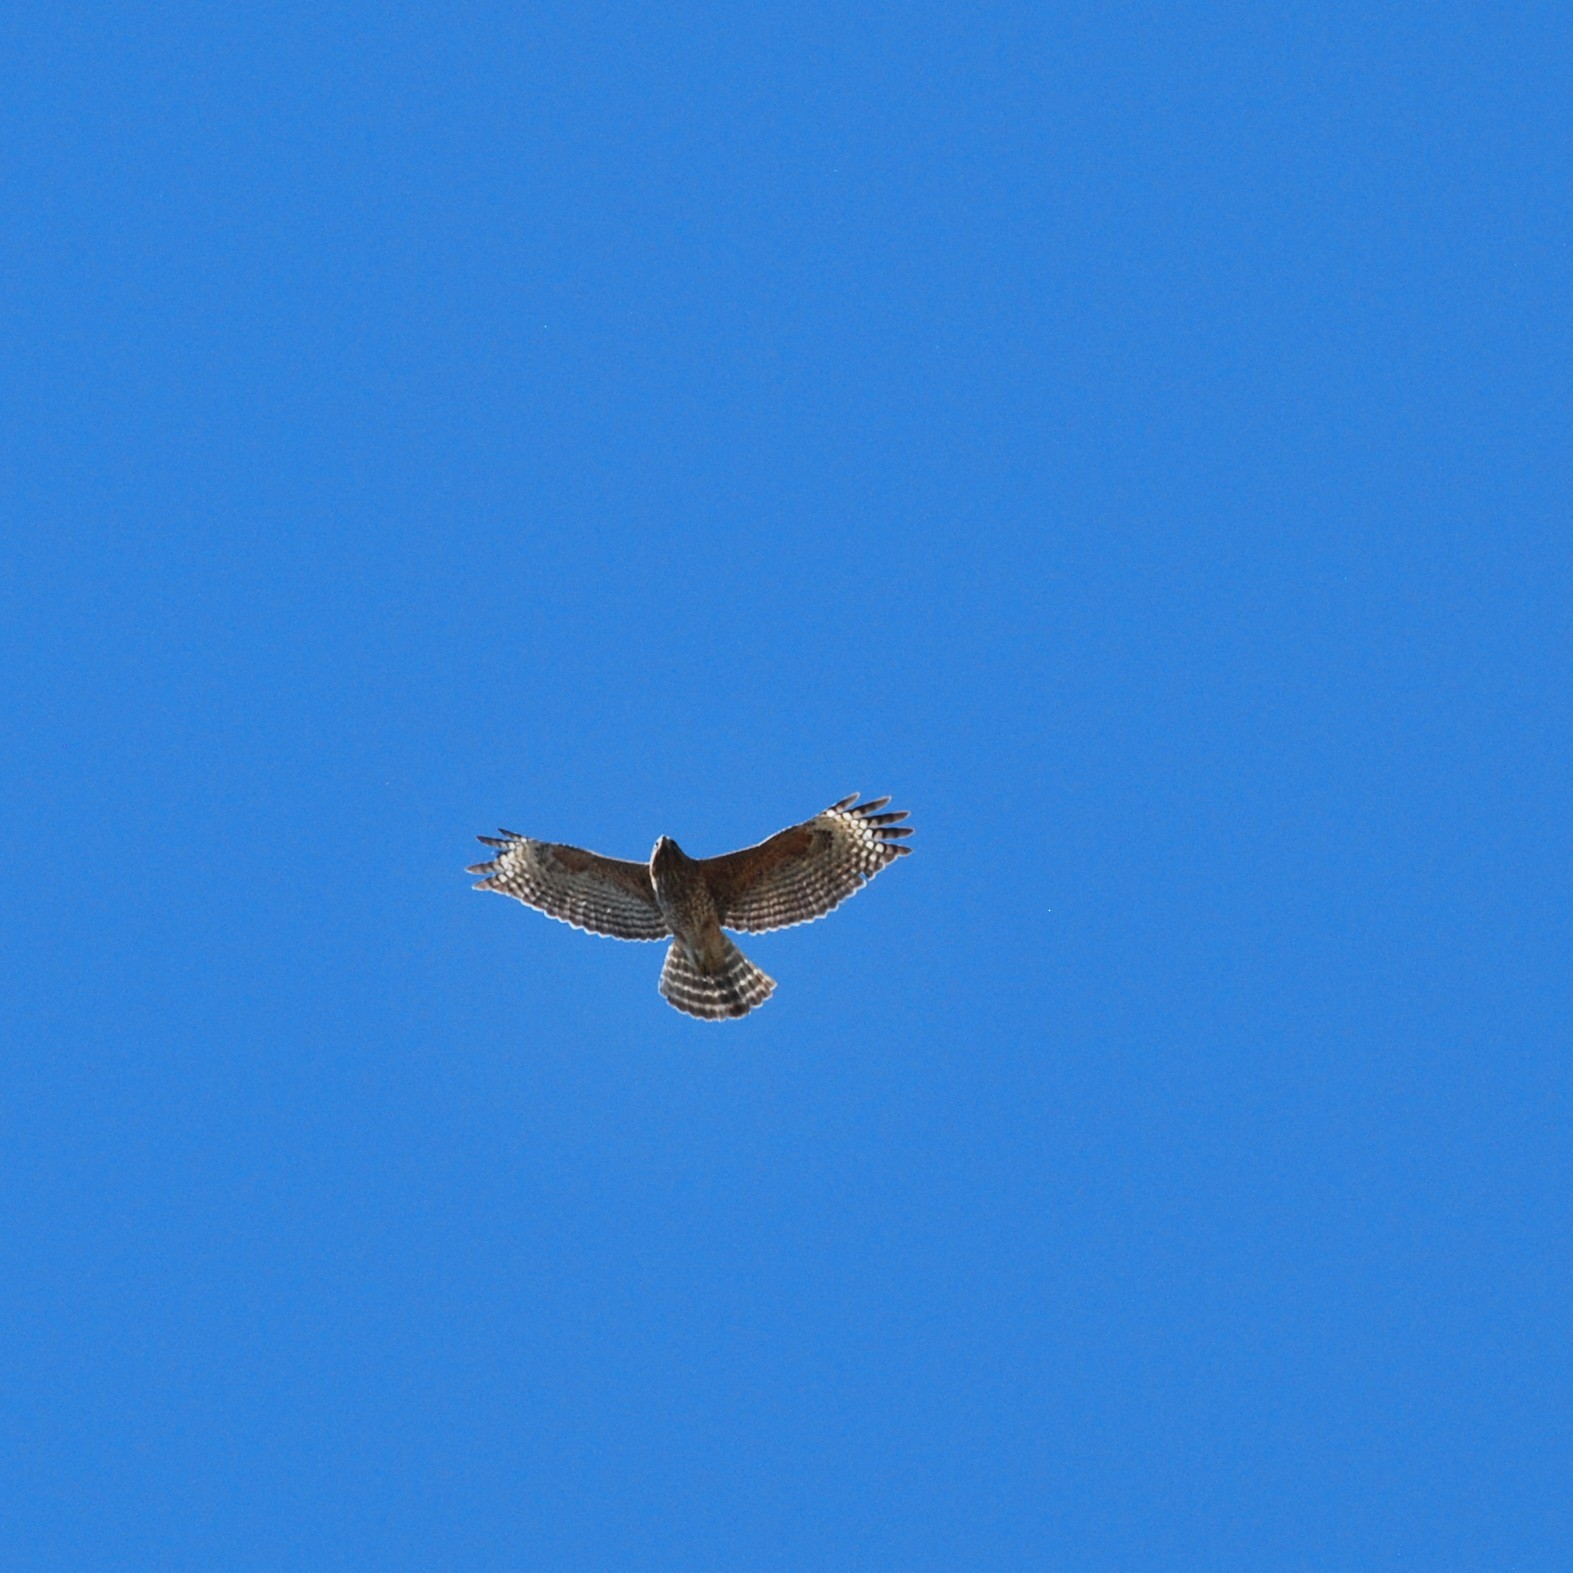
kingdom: Animalia
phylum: Chordata
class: Aves
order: Accipitriformes
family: Accipitridae
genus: Buteo
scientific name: Buteo lineatus
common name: Red-shouldered hawk
